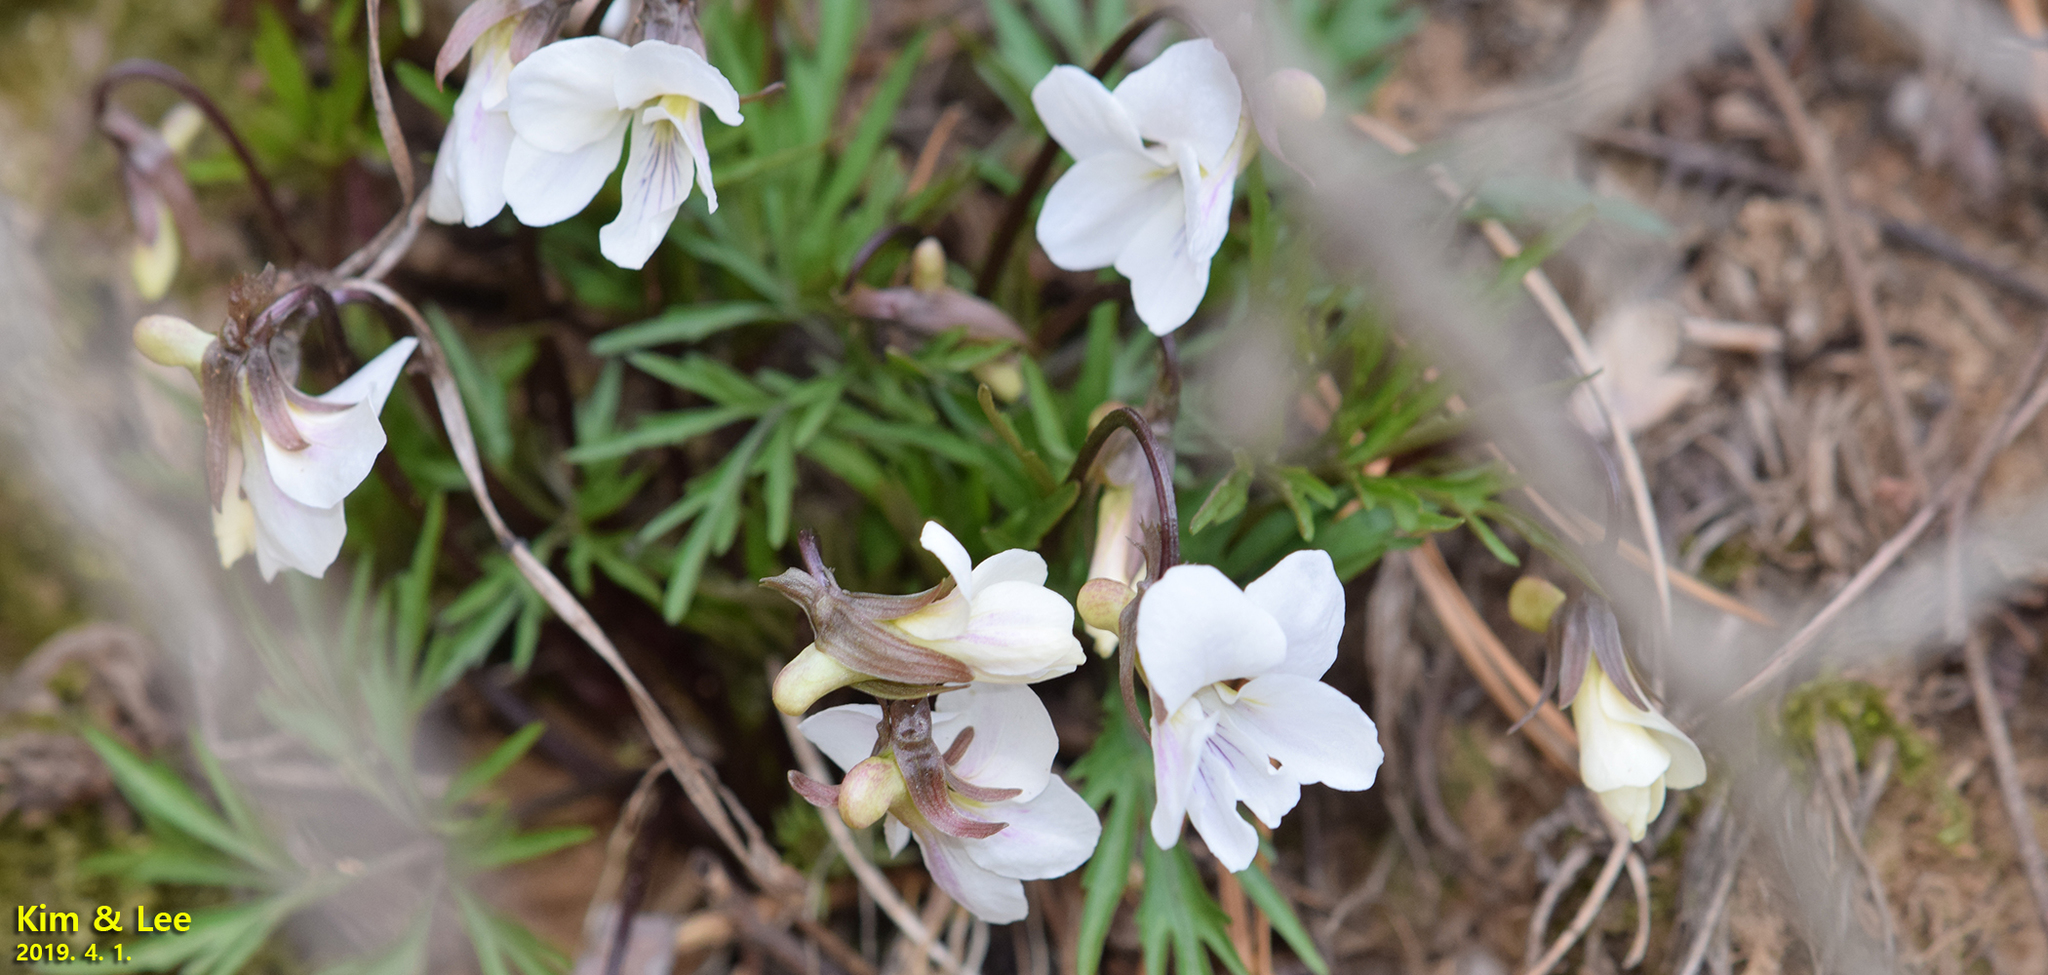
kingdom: Plantae
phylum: Tracheophyta
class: Magnoliopsida
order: Malpighiales
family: Violaceae
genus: Viola
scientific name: Viola albida
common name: Korean violet
